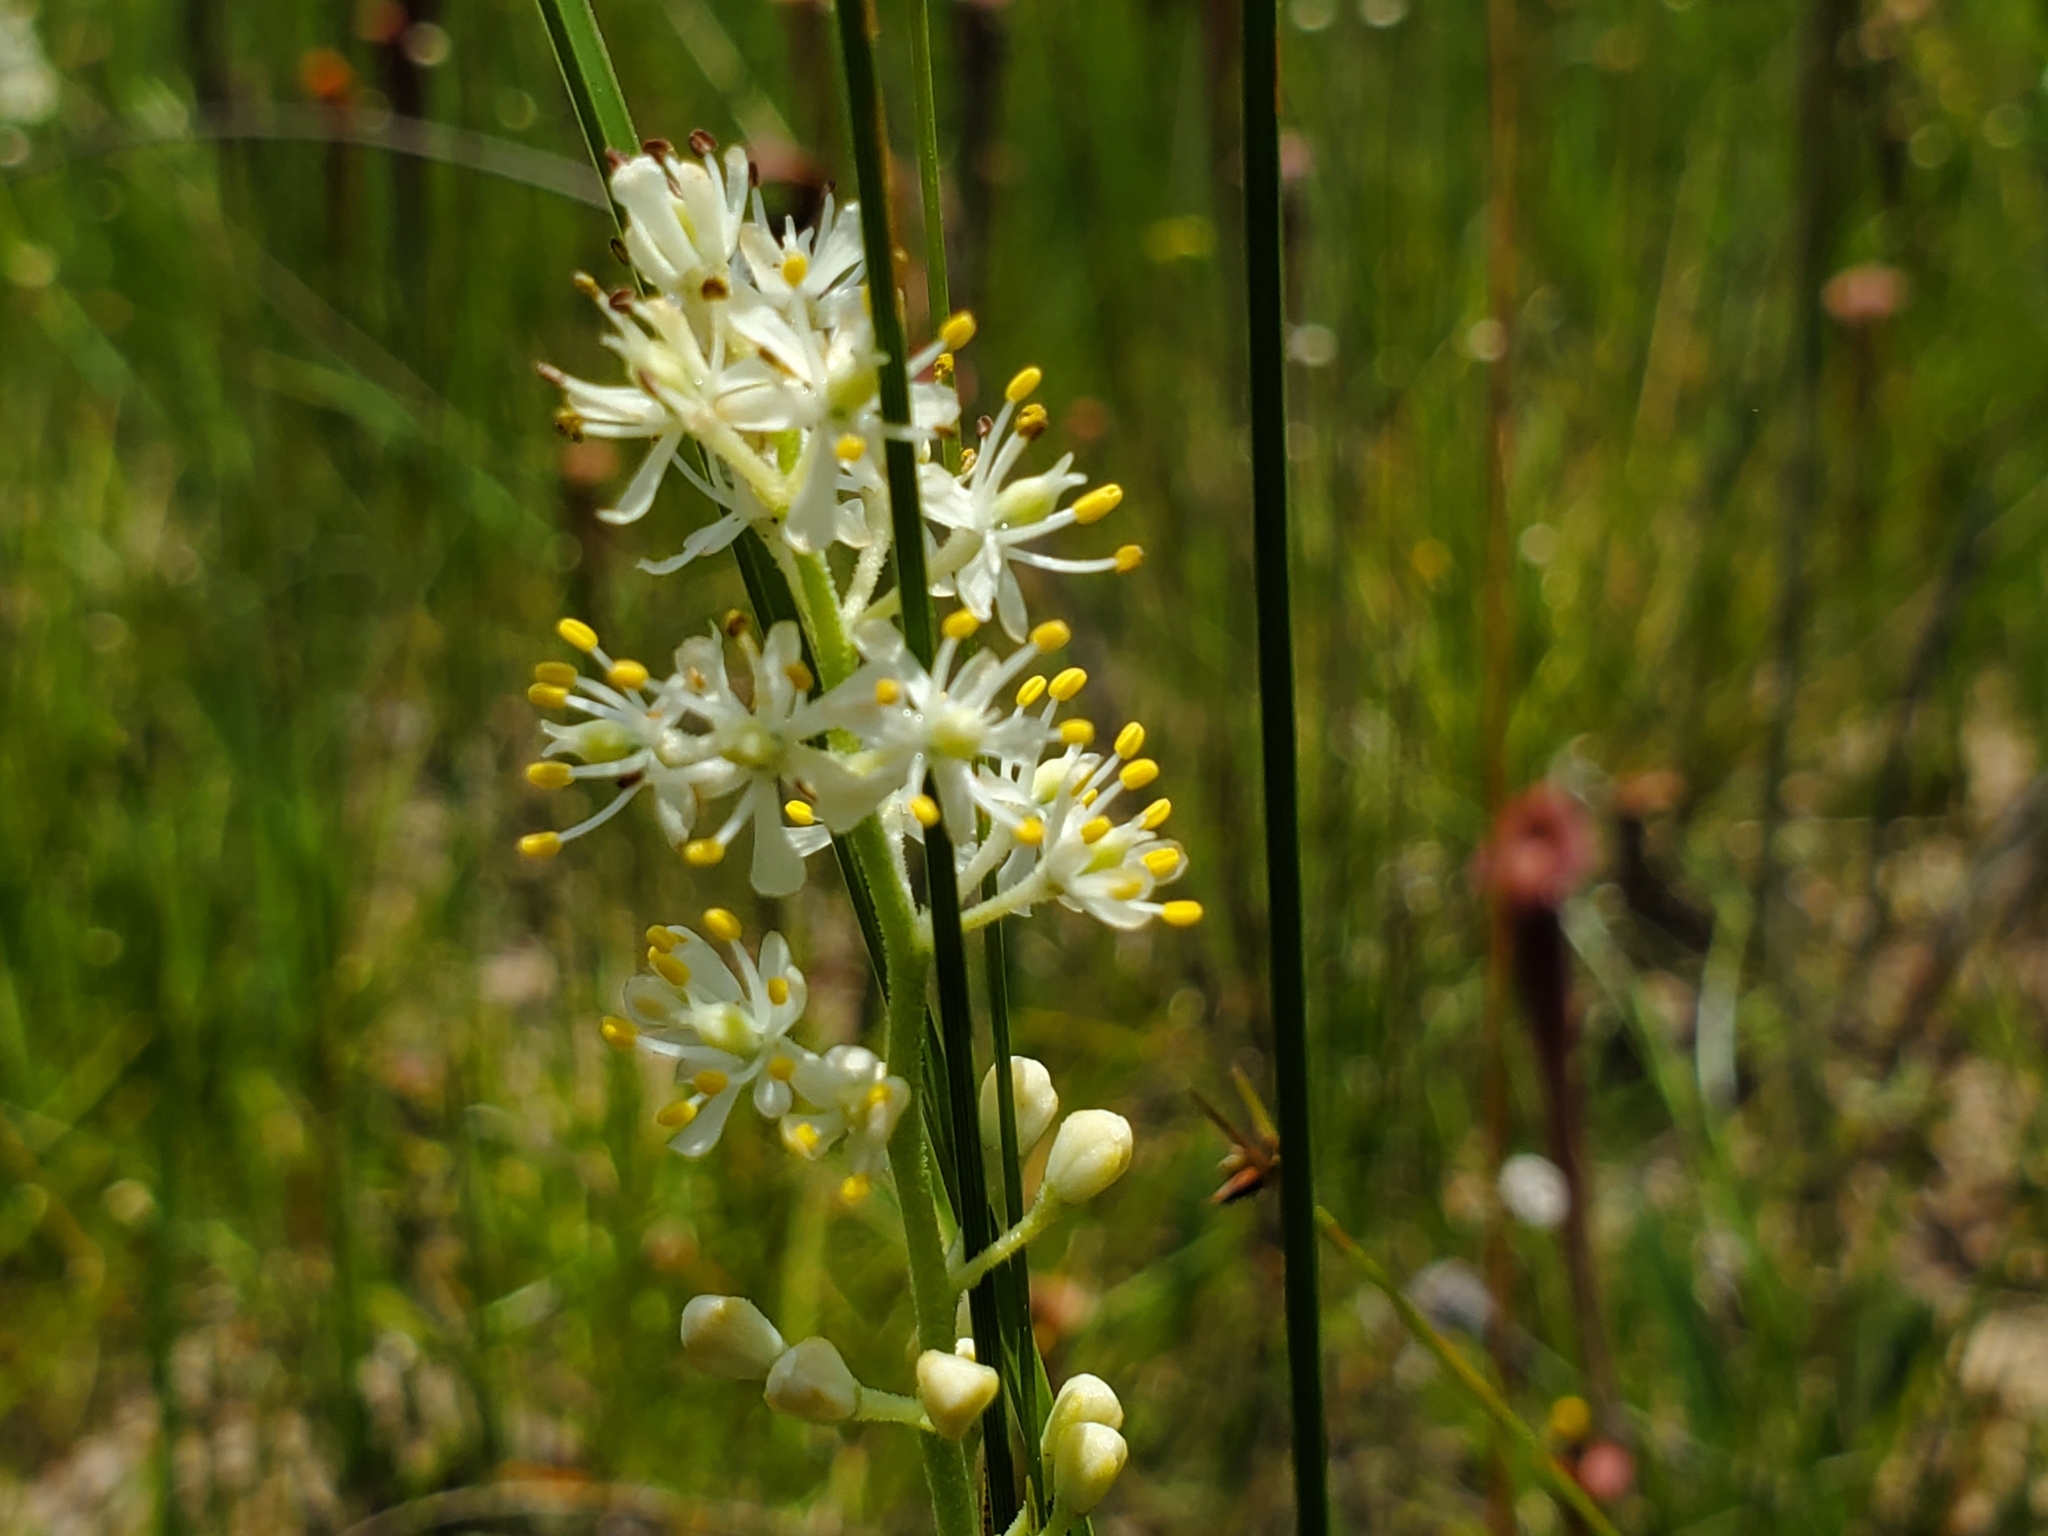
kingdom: Plantae
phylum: Tracheophyta
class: Liliopsida
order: Alismatales
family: Tofieldiaceae
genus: Triantha
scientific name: Triantha racemosa
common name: Coastal false asphodel
